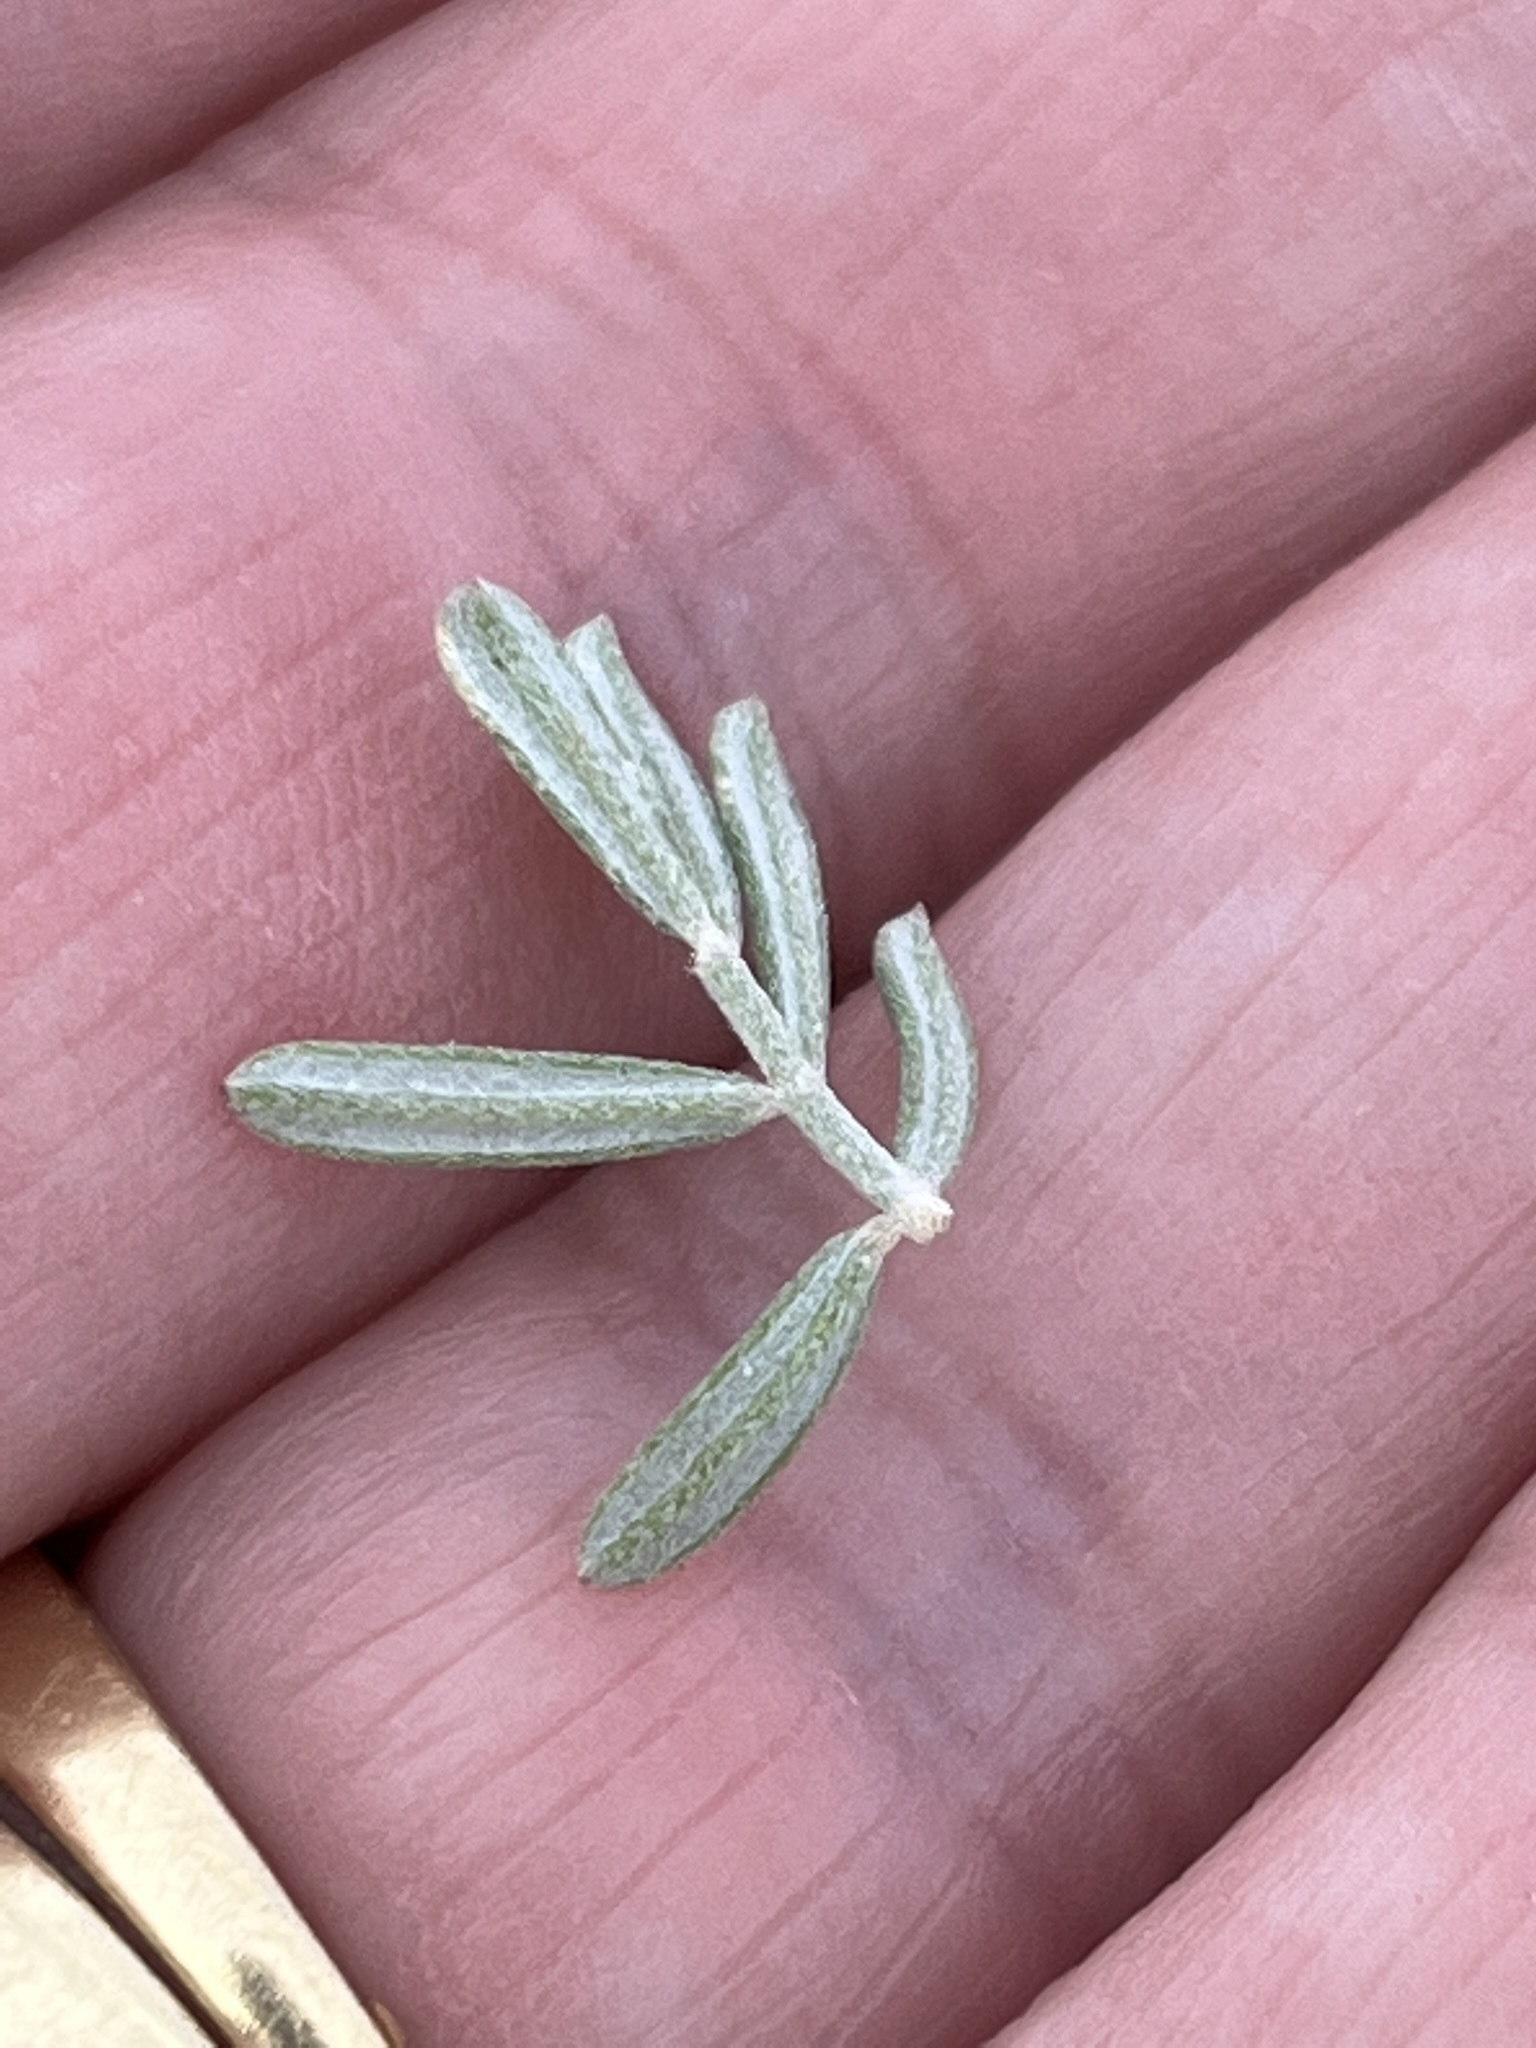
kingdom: Plantae
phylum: Tracheophyta
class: Magnoliopsida
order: Fabales
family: Fabaceae
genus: Indigofera
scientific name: Indigofera brachystachya
